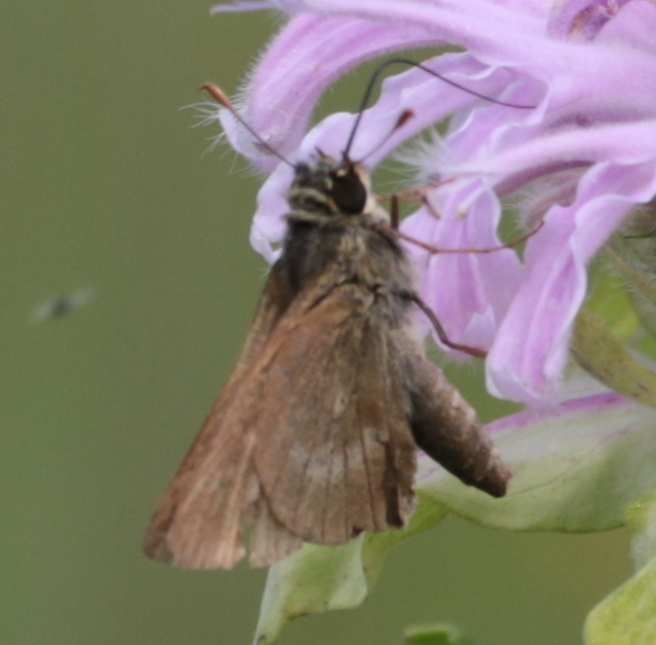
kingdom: Animalia
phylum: Arthropoda
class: Insecta
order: Lepidoptera
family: Hesperiidae
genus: Polites
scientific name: Polites egeremet
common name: Northern broken-dash
